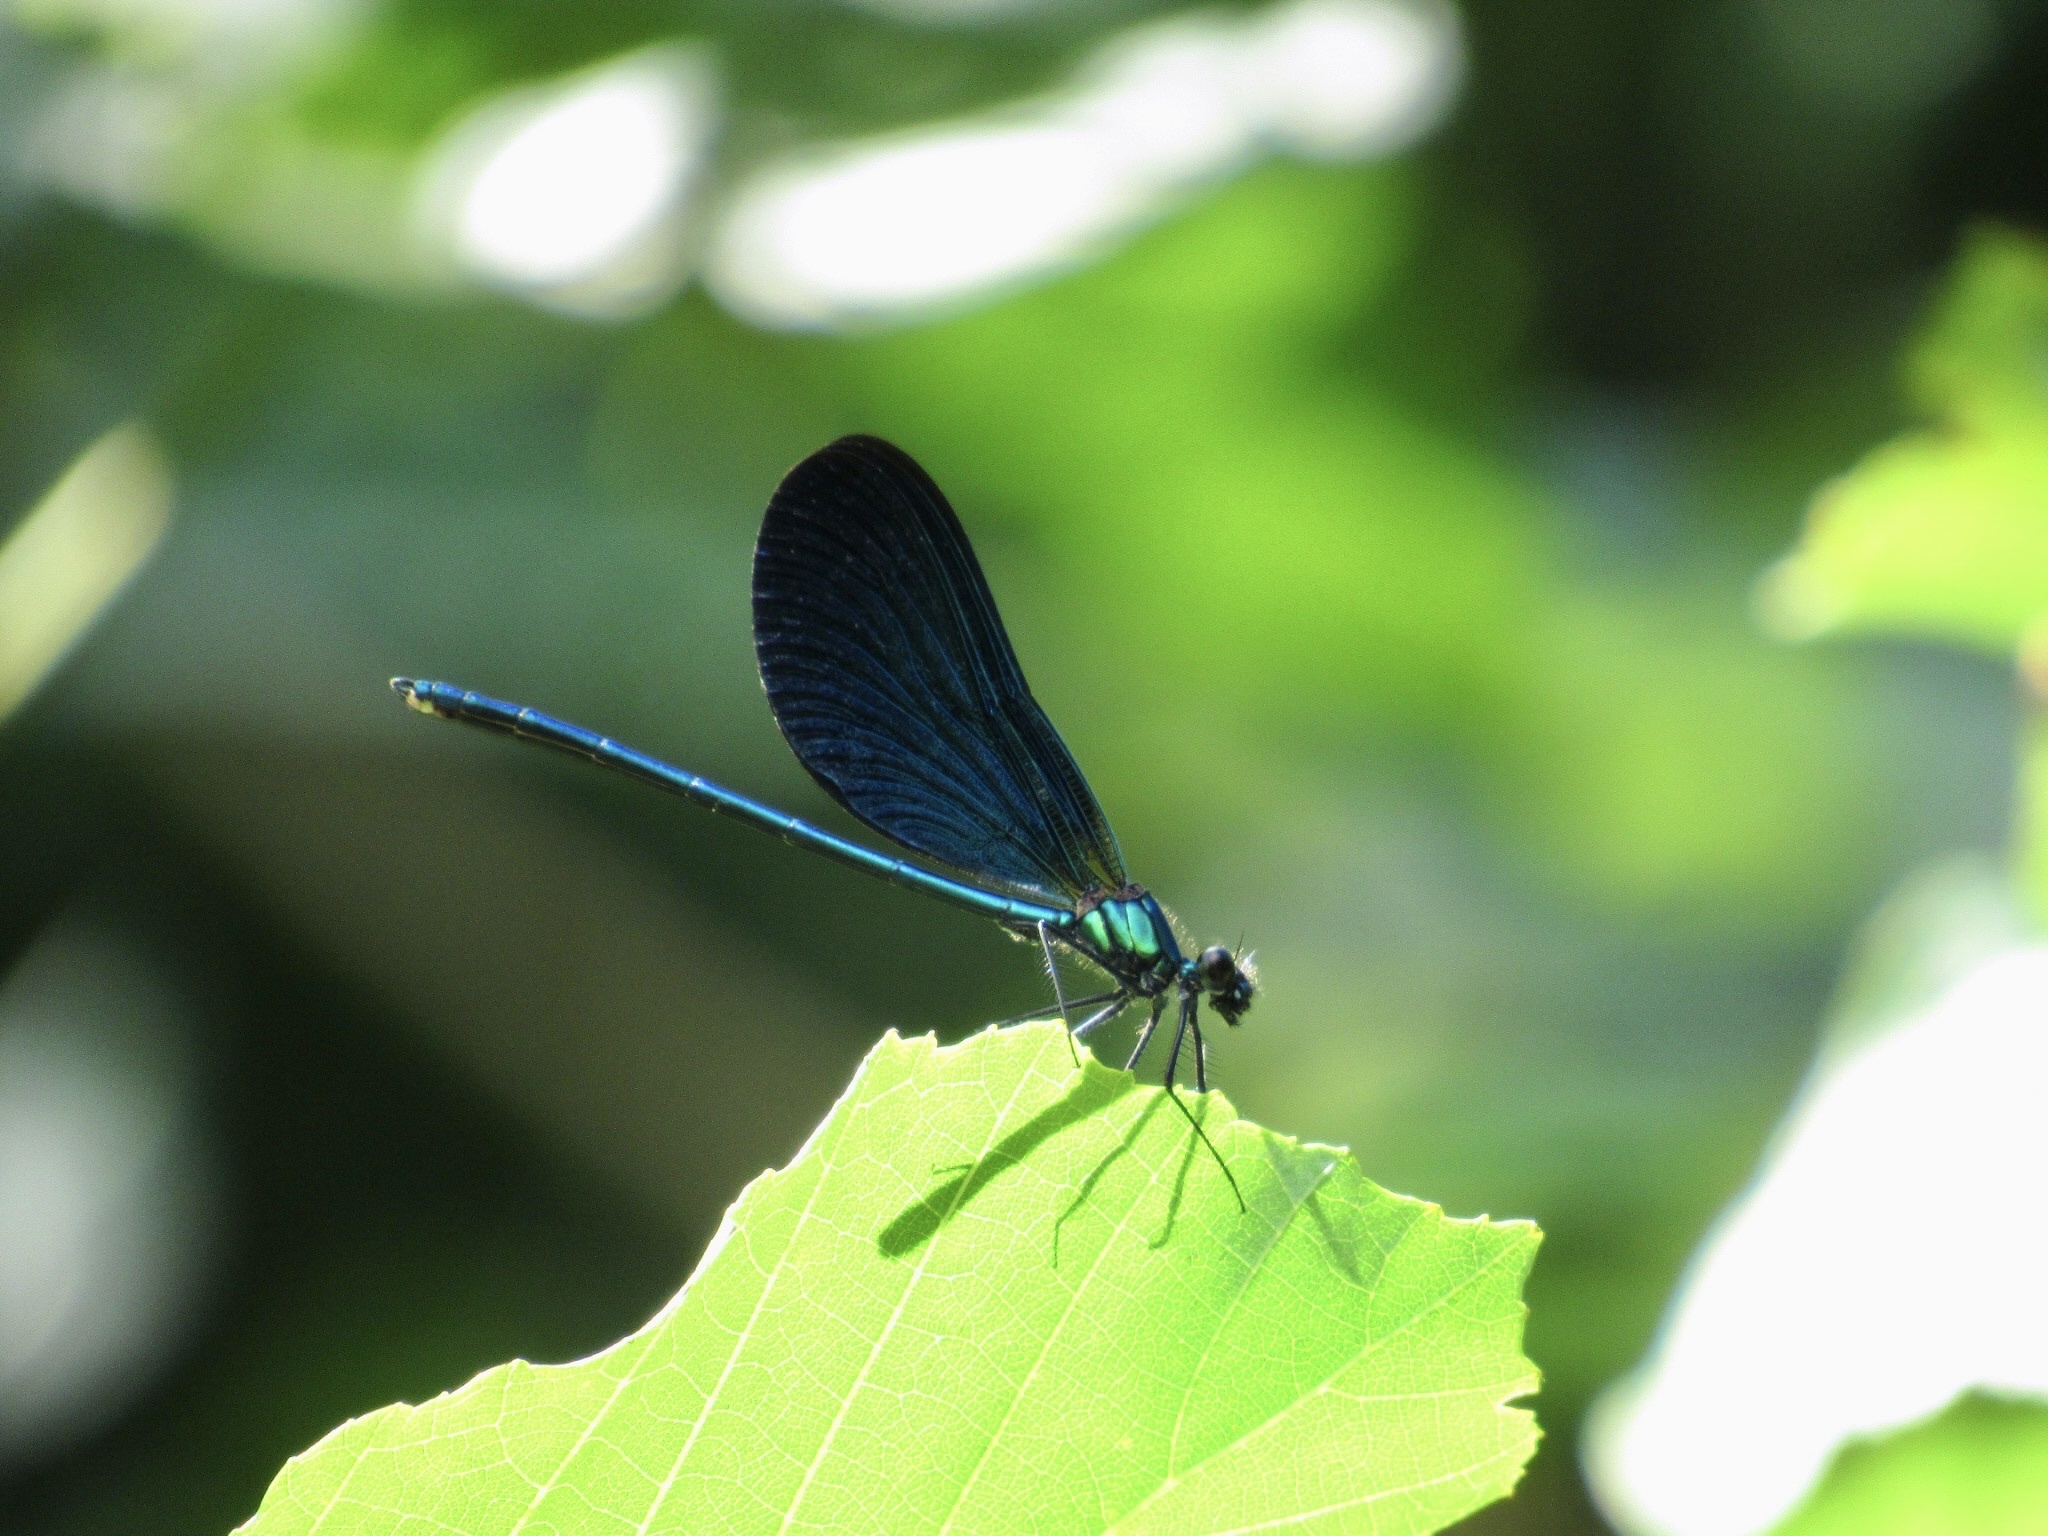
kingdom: Animalia
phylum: Arthropoda
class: Insecta
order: Odonata
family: Calopterygidae
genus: Calopteryx
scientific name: Calopteryx virgo
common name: Beautiful demoiselle
